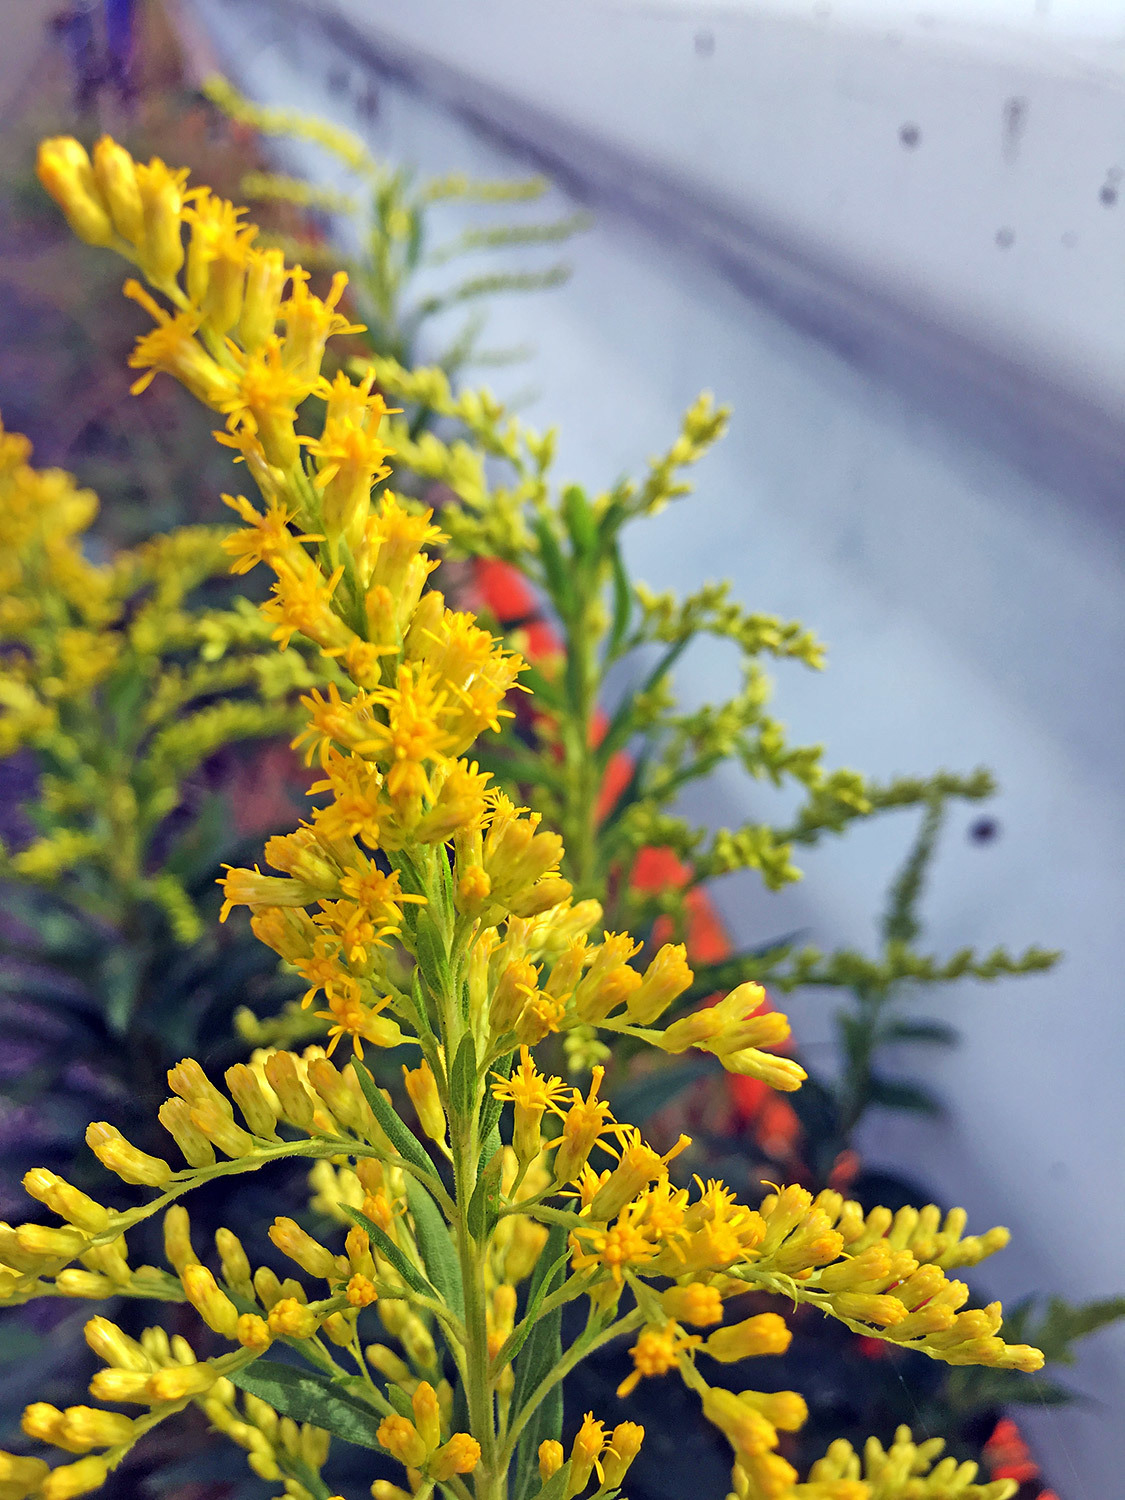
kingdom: Plantae
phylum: Tracheophyta
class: Magnoliopsida
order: Asterales
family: Asteraceae
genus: Solidago
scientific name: Solidago altissima
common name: Late goldenrod
